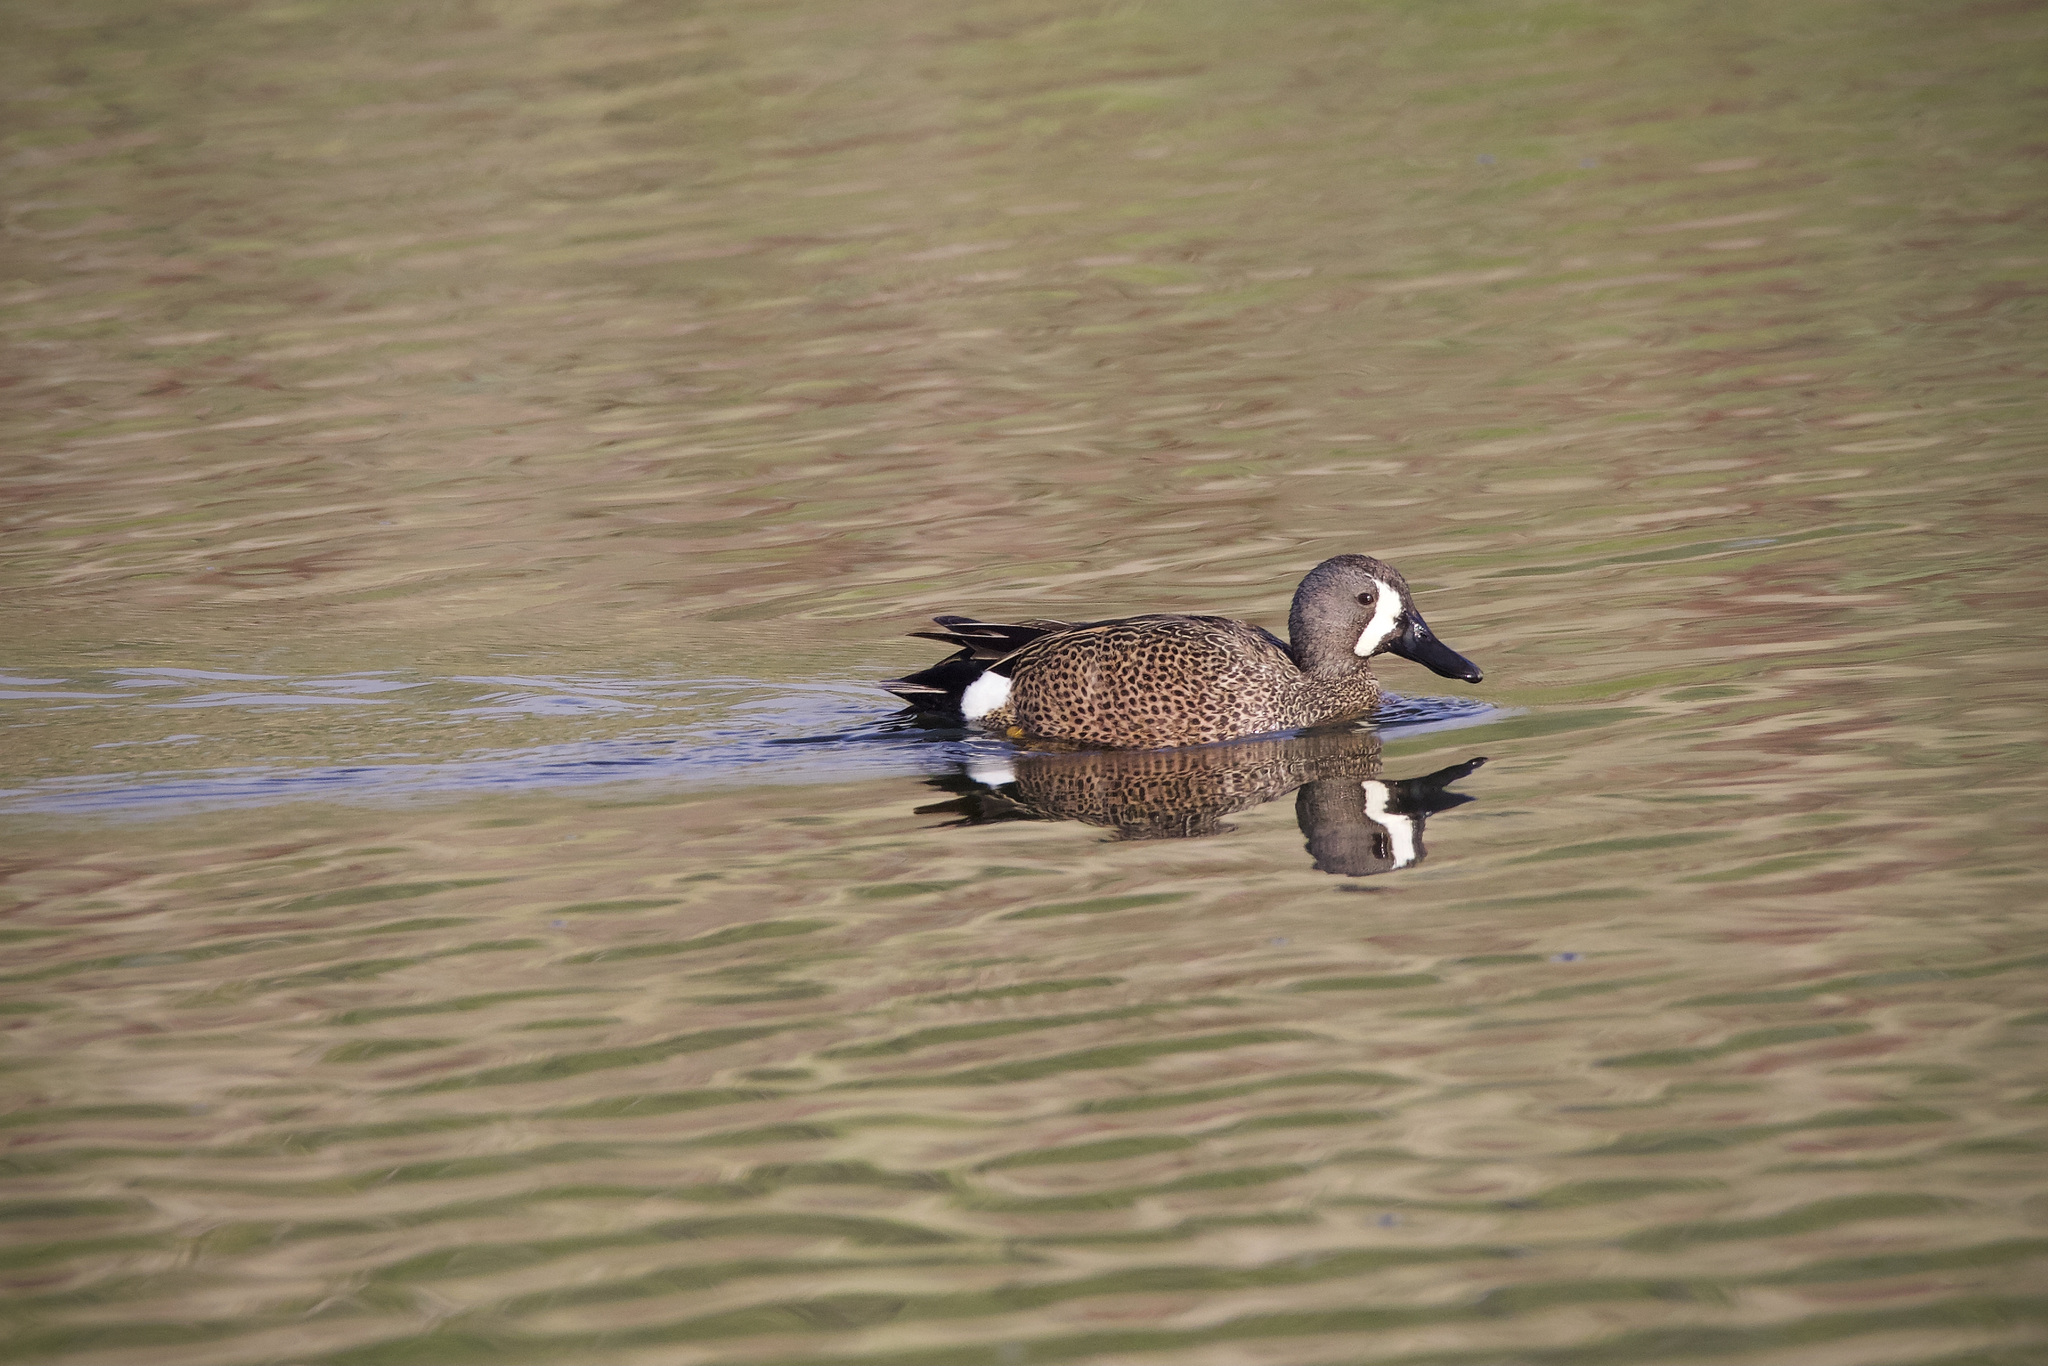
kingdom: Animalia
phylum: Chordata
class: Aves
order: Anseriformes
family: Anatidae
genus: Spatula
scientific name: Spatula discors
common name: Blue-winged teal
